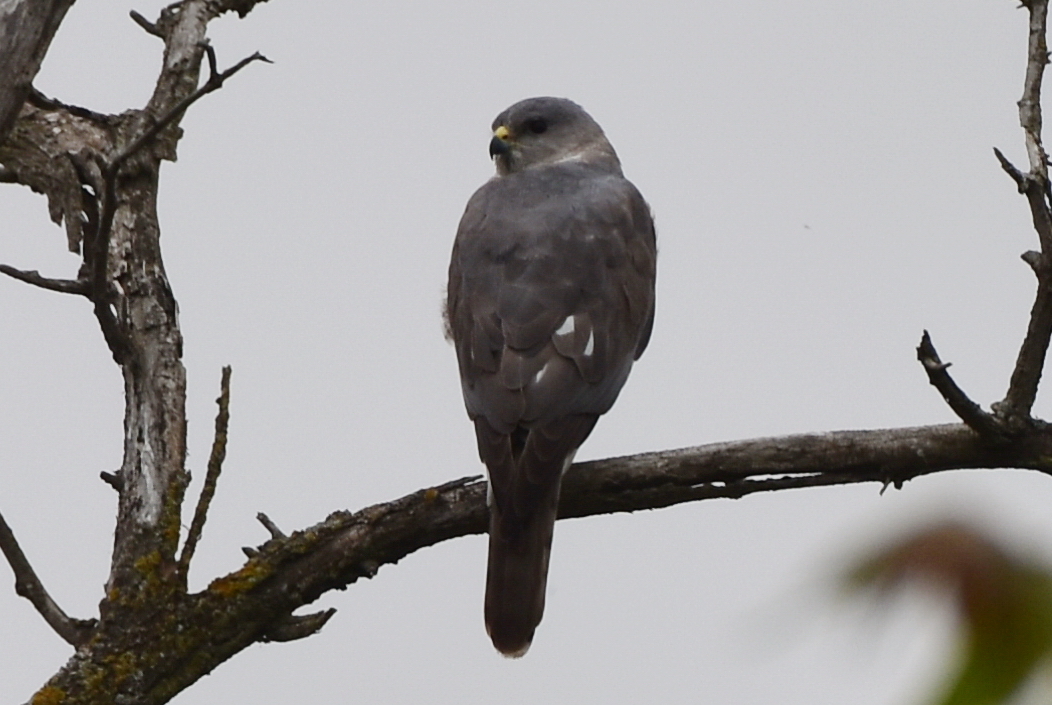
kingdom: Animalia
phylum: Chordata
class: Aves
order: Accipitriformes
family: Accipitridae
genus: Accipiter
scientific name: Accipiter brevipes
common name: Levant sparrowhawk
